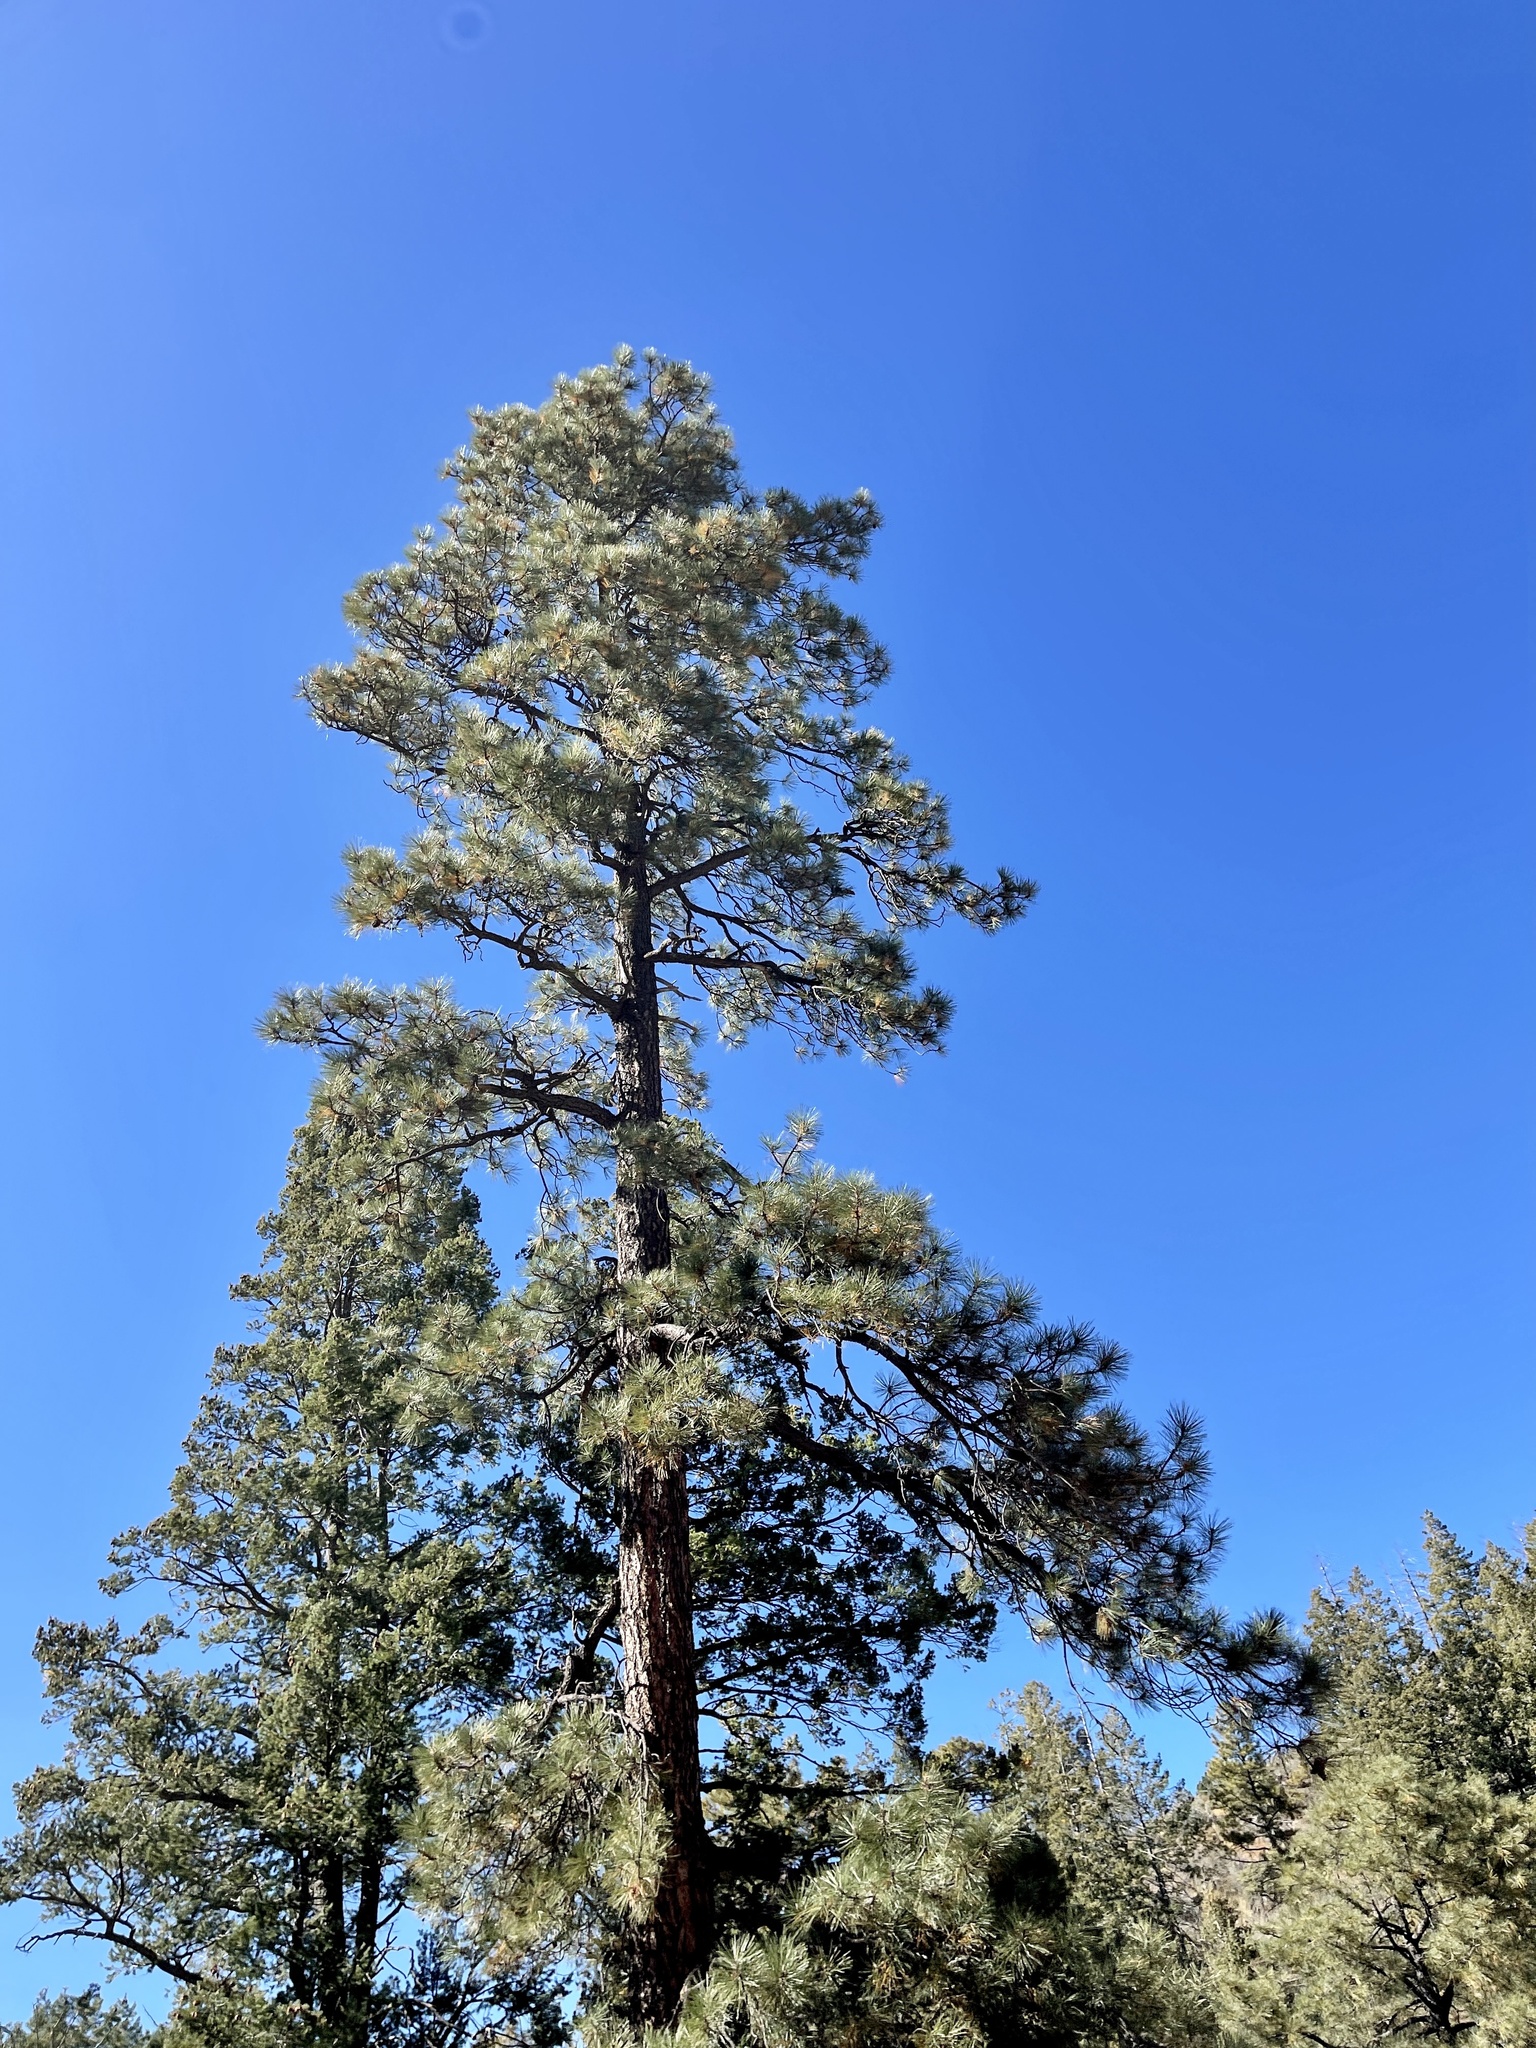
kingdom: Plantae
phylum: Tracheophyta
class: Pinopsida
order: Pinales
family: Pinaceae
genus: Pinus
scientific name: Pinus ponderosa
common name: Western yellow-pine
